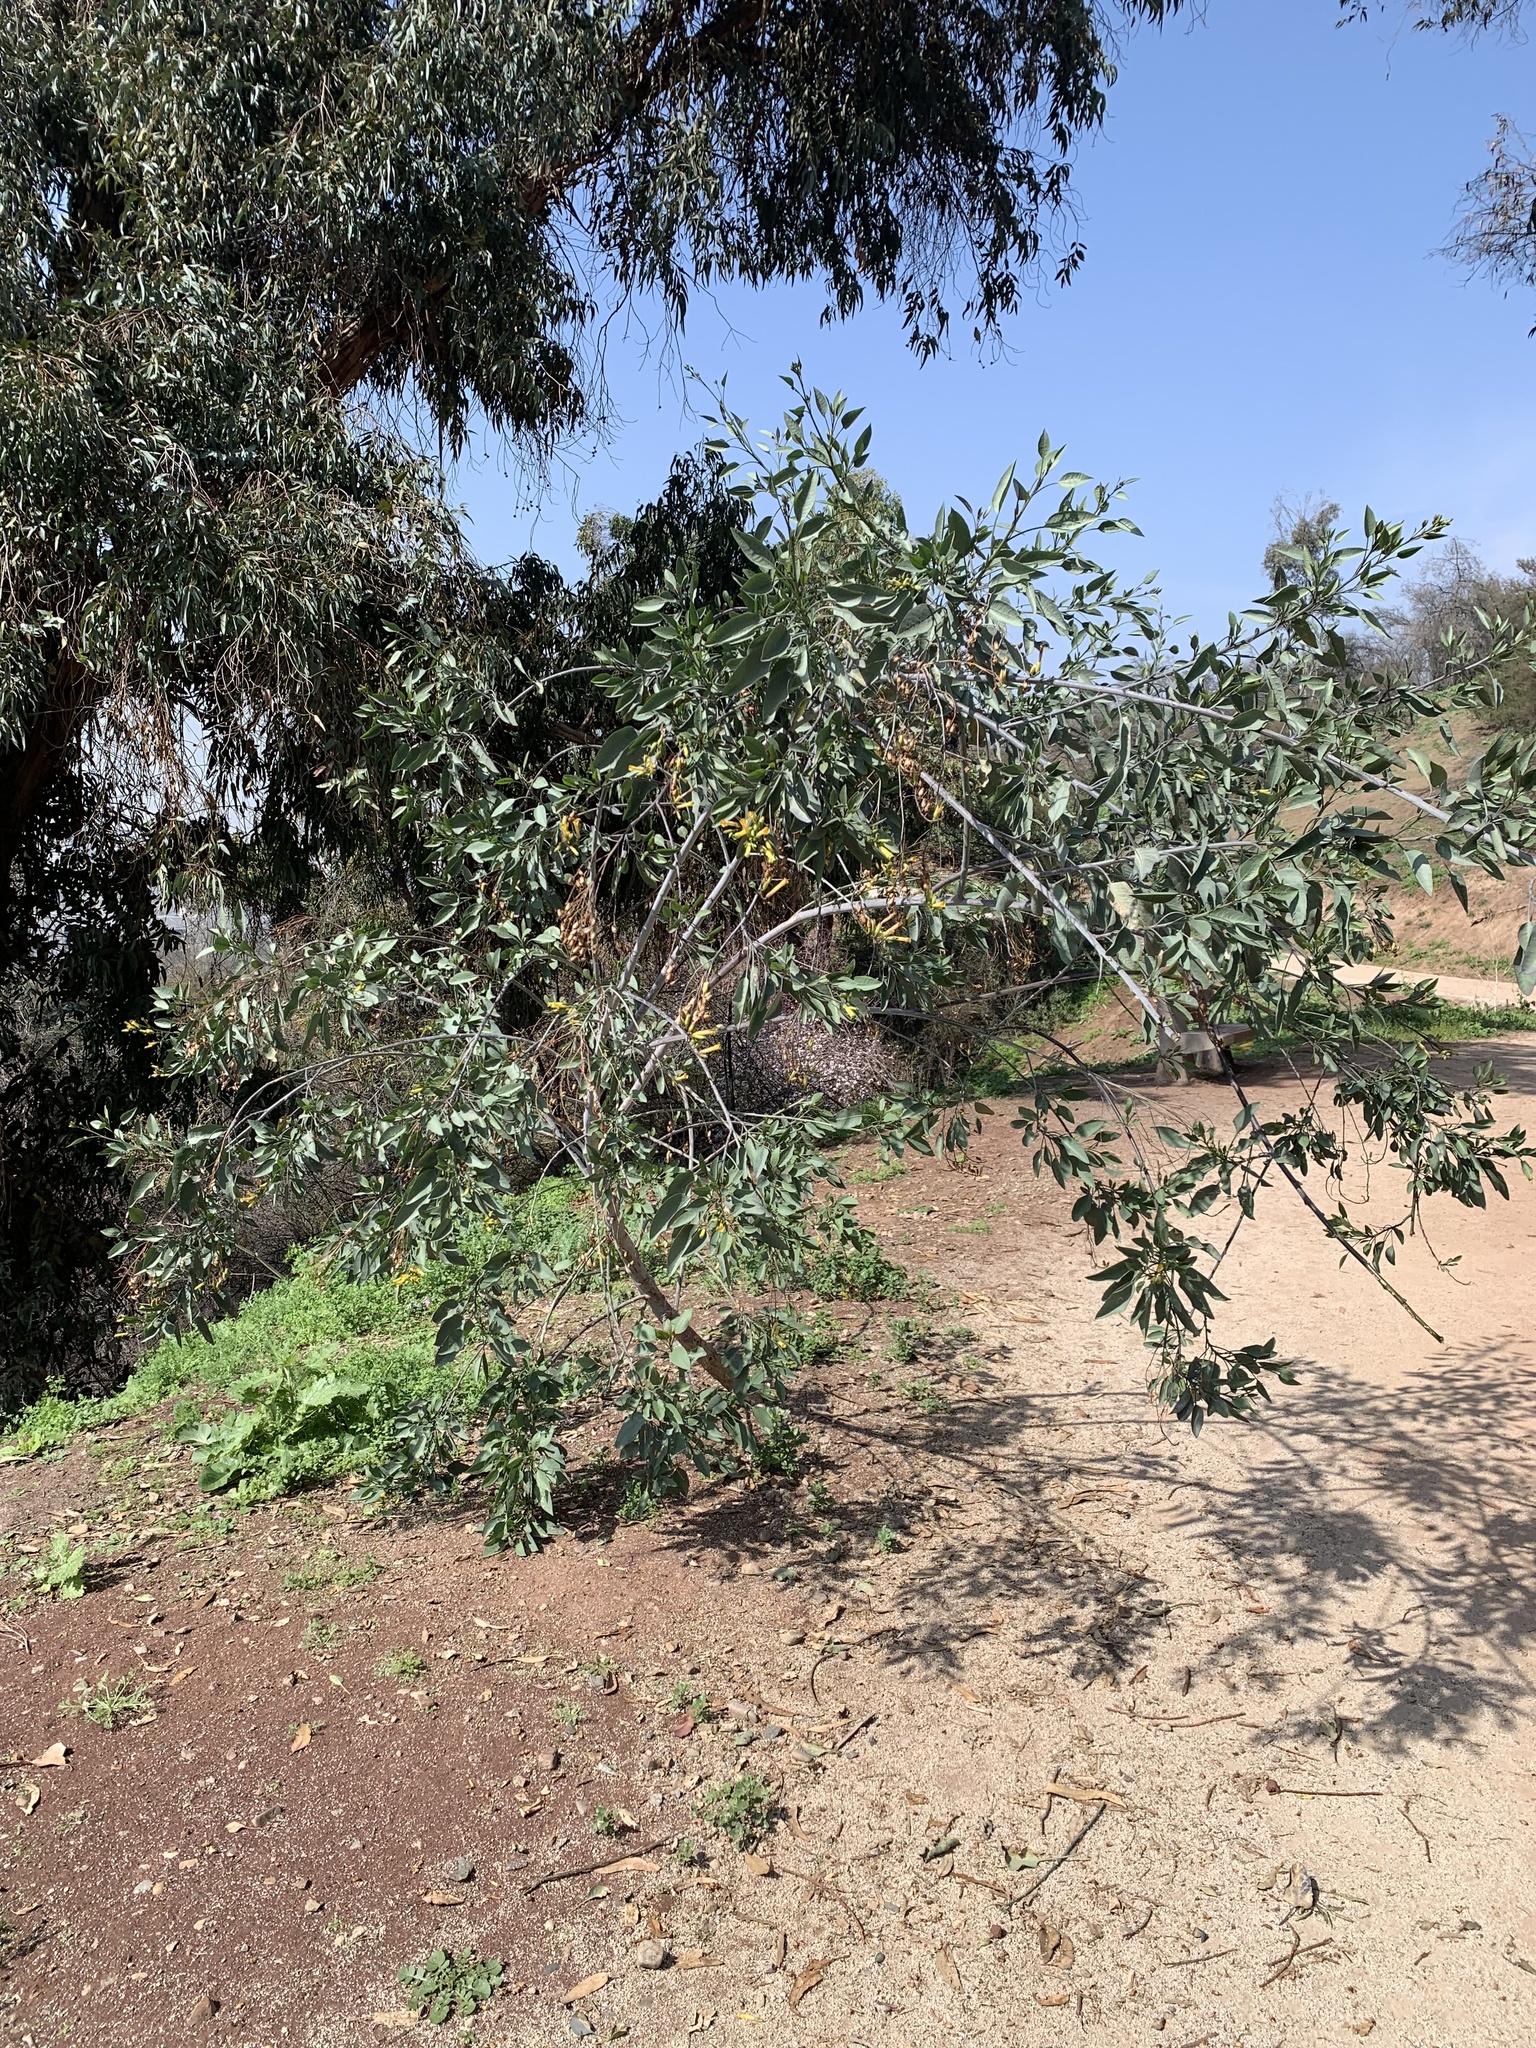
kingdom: Plantae
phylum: Tracheophyta
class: Magnoliopsida
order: Solanales
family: Solanaceae
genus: Nicotiana
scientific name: Nicotiana glauca
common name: Tree tobacco
